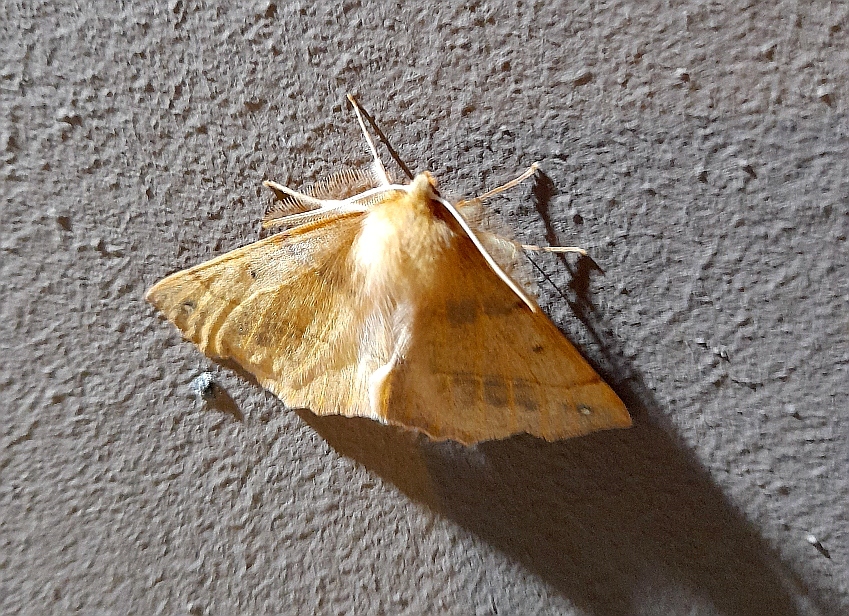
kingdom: Animalia
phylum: Arthropoda
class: Insecta
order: Lepidoptera
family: Geometridae
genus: Colotois
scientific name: Colotois pennaria
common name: Feathered thorn
